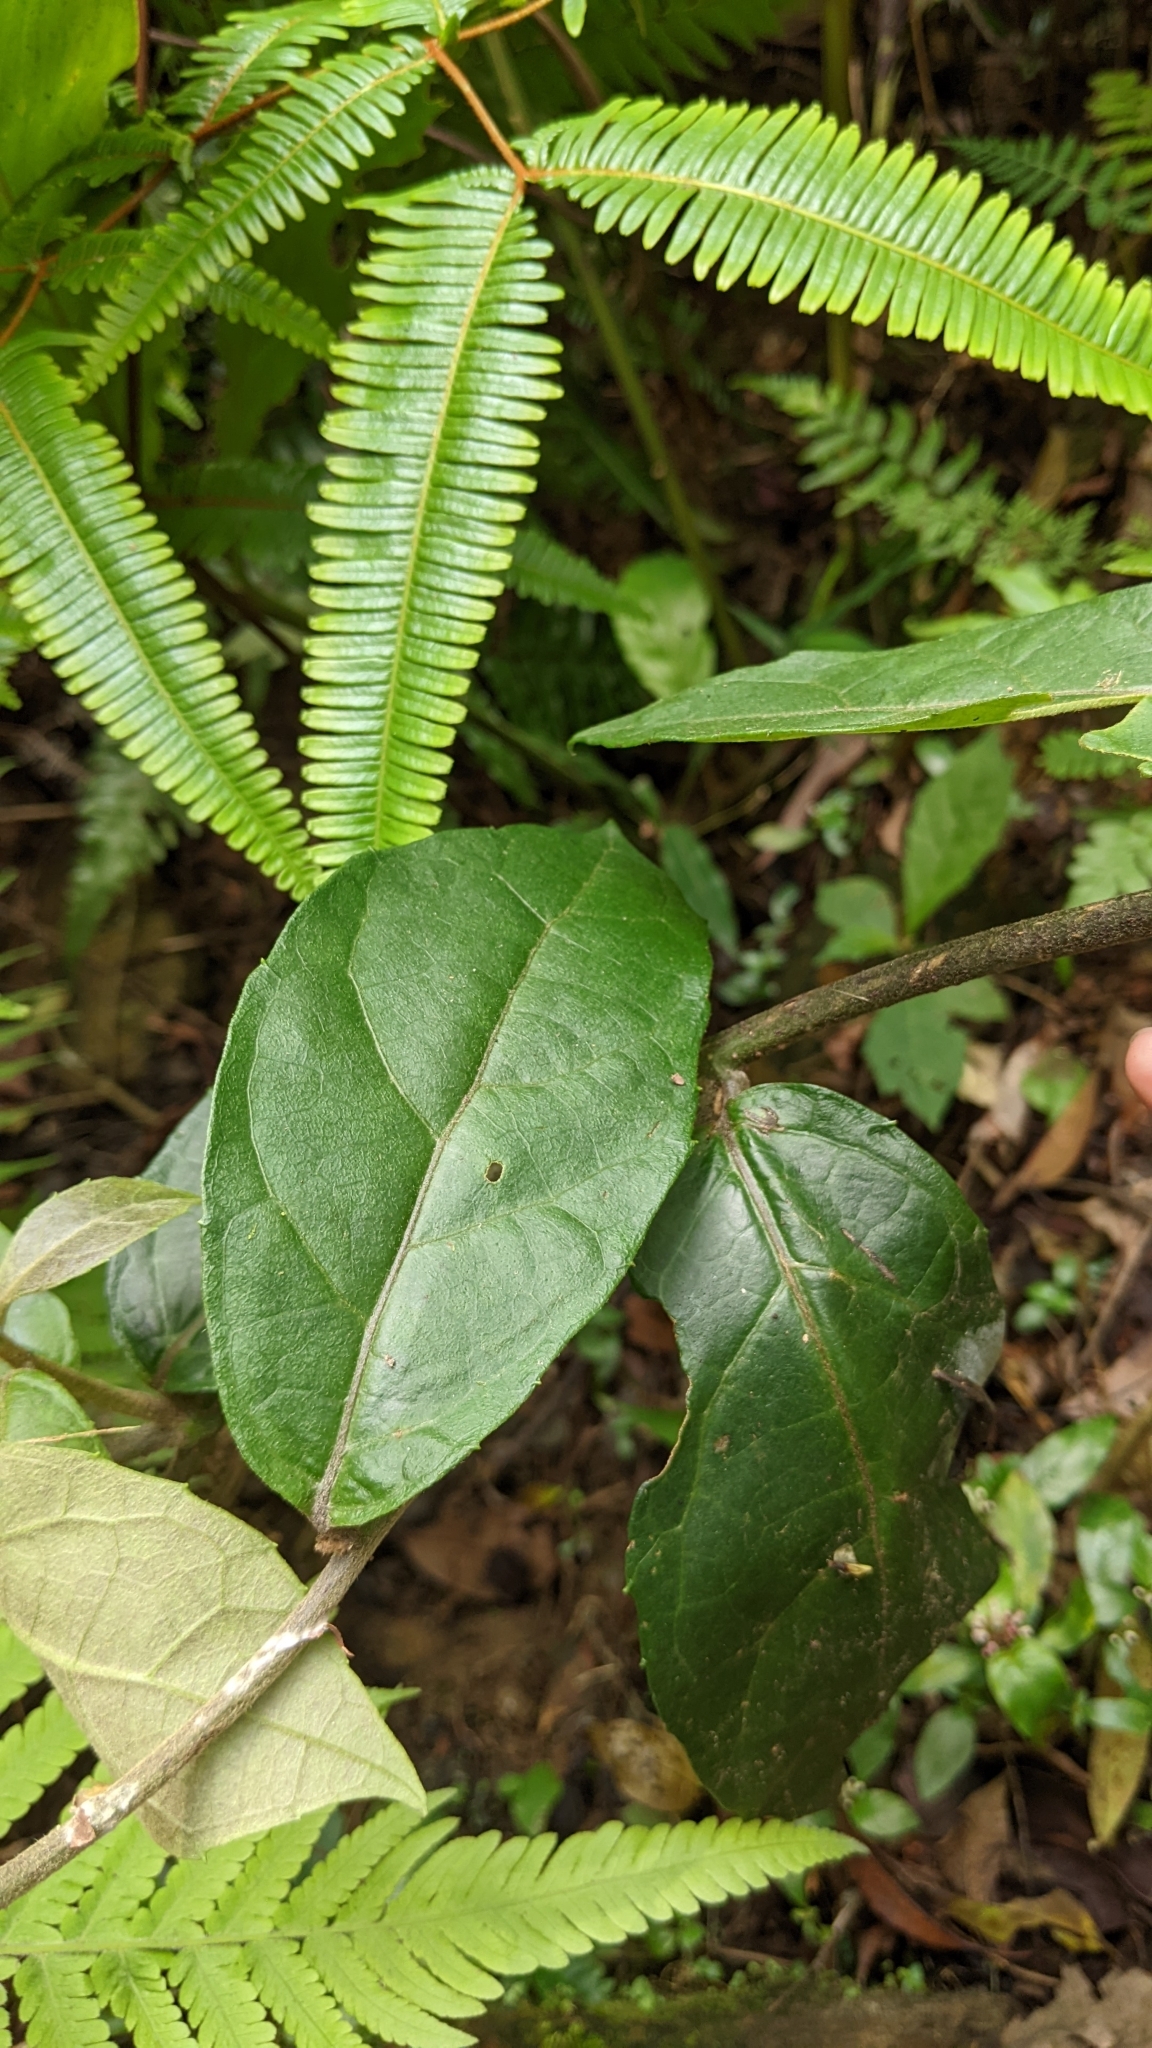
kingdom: Plantae
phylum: Tracheophyta
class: Magnoliopsida
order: Asterales
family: Asteraceae
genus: Decaneuropsis
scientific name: Decaneuropsis gratiosa
